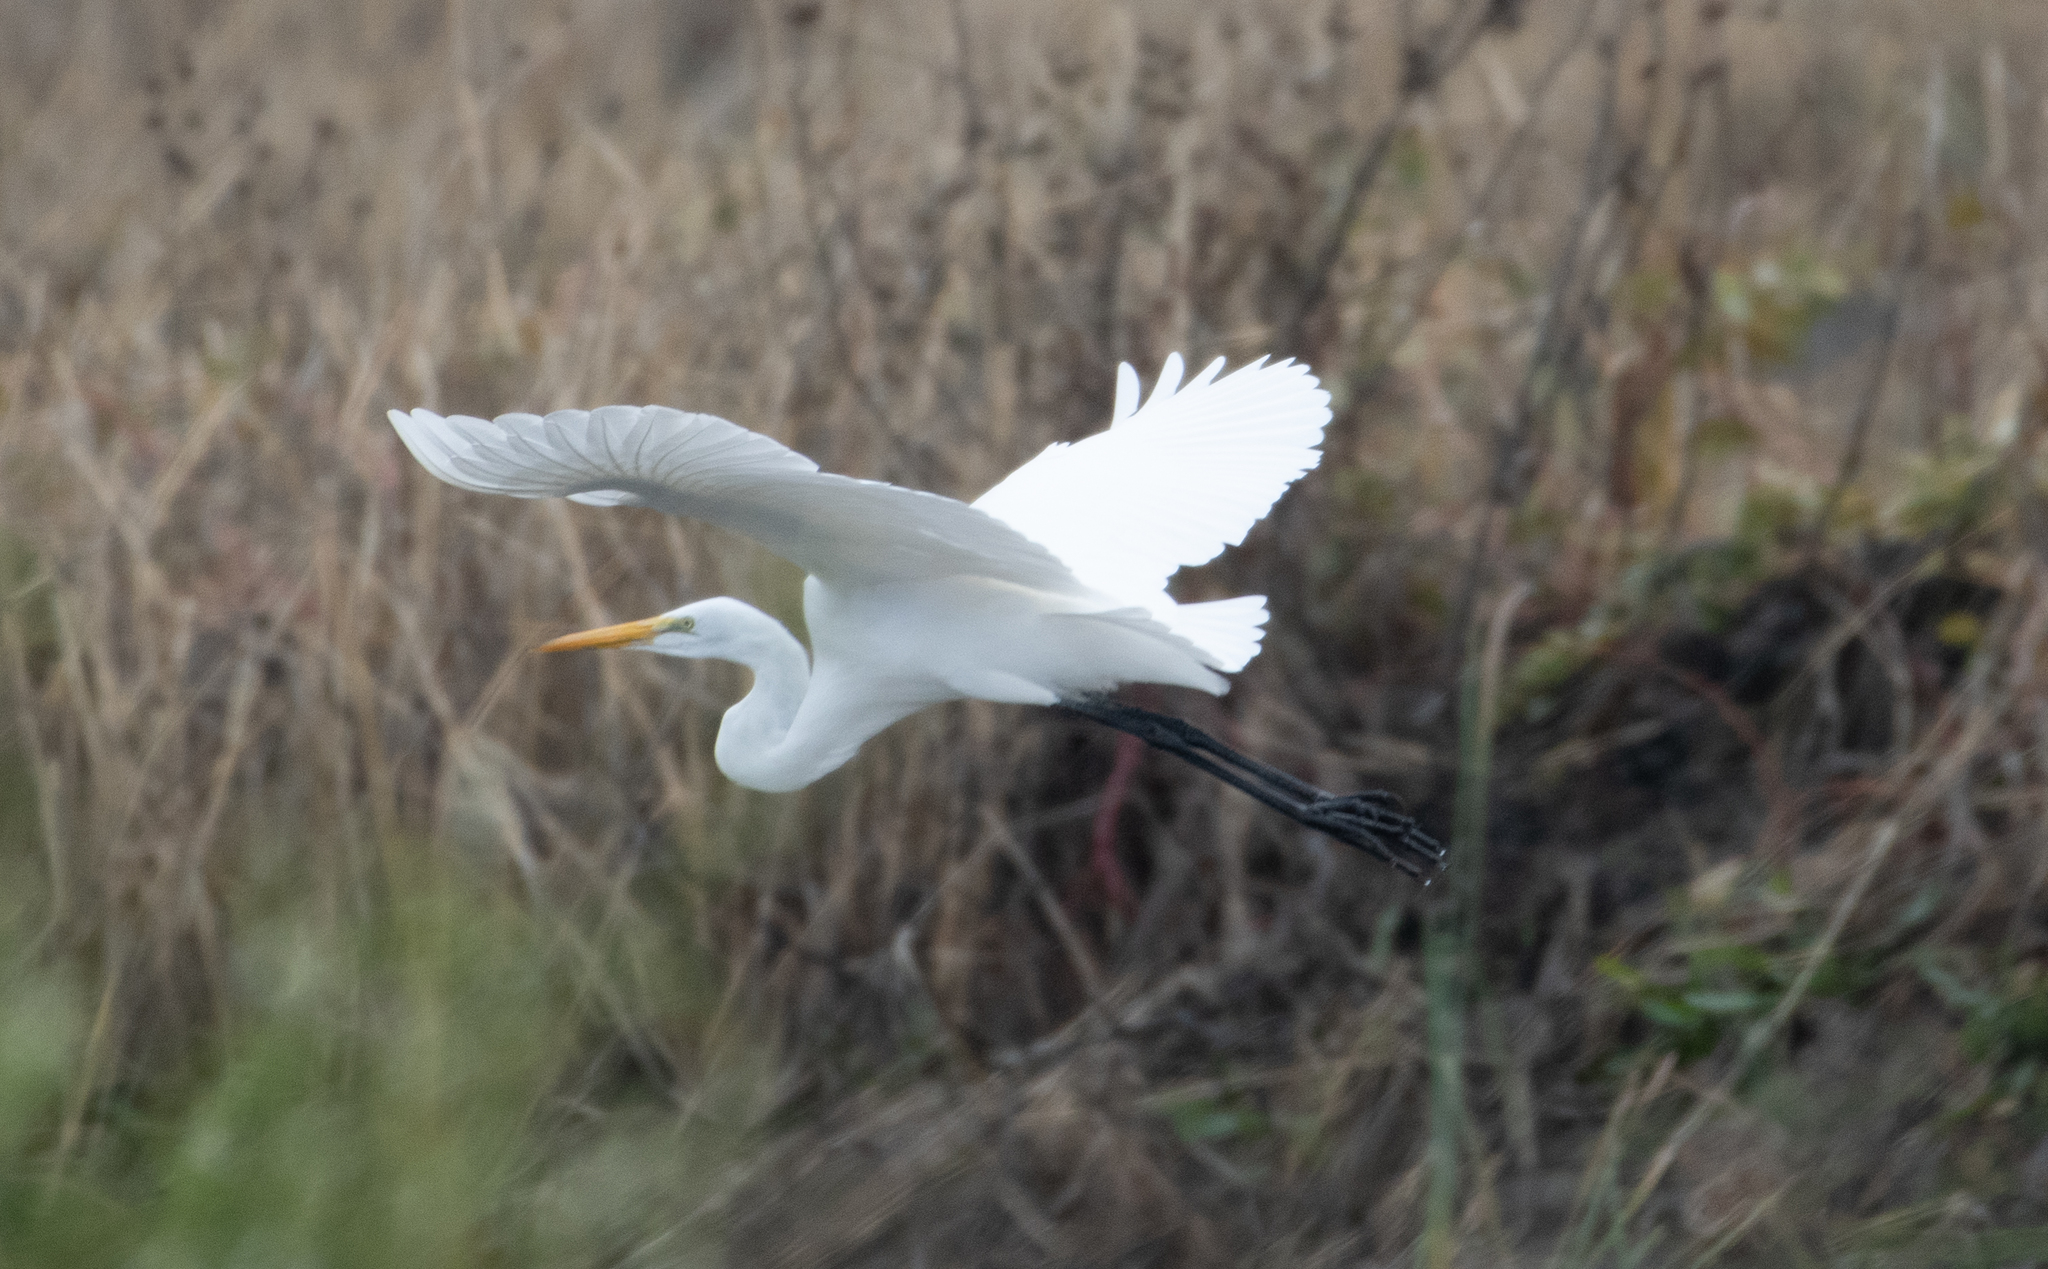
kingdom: Animalia
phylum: Chordata
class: Aves
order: Pelecaniformes
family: Ardeidae
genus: Ardea
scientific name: Ardea alba
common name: Great egret
